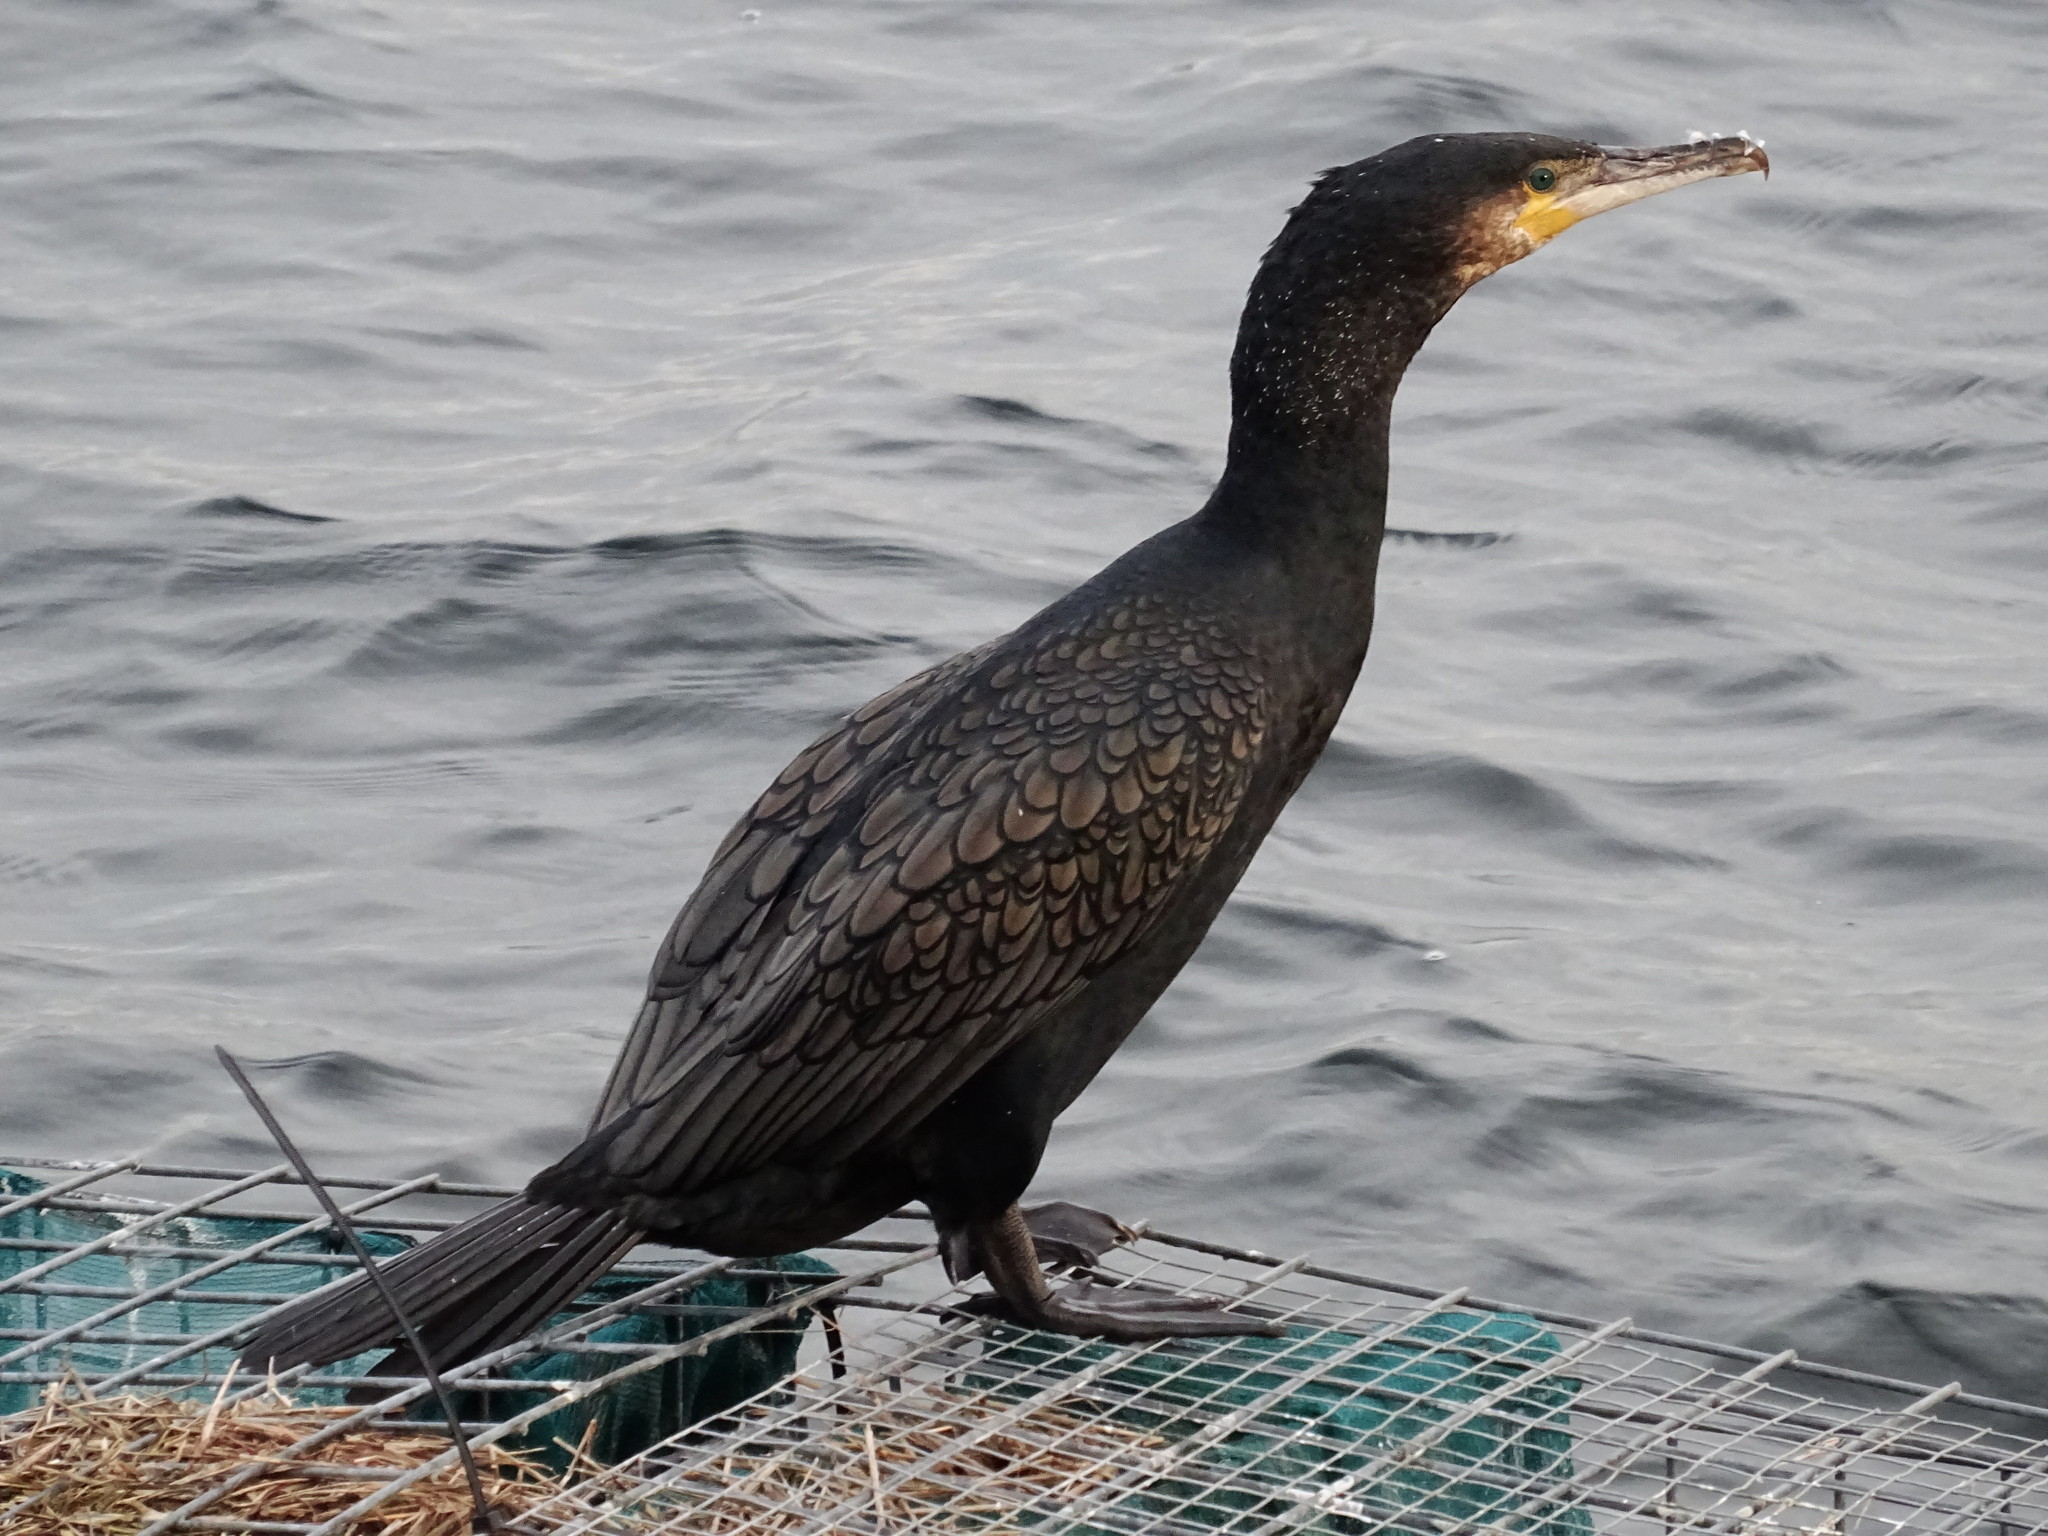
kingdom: Animalia
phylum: Chordata
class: Aves
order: Suliformes
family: Phalacrocoracidae
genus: Phalacrocorax
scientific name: Phalacrocorax carbo
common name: Great cormorant
